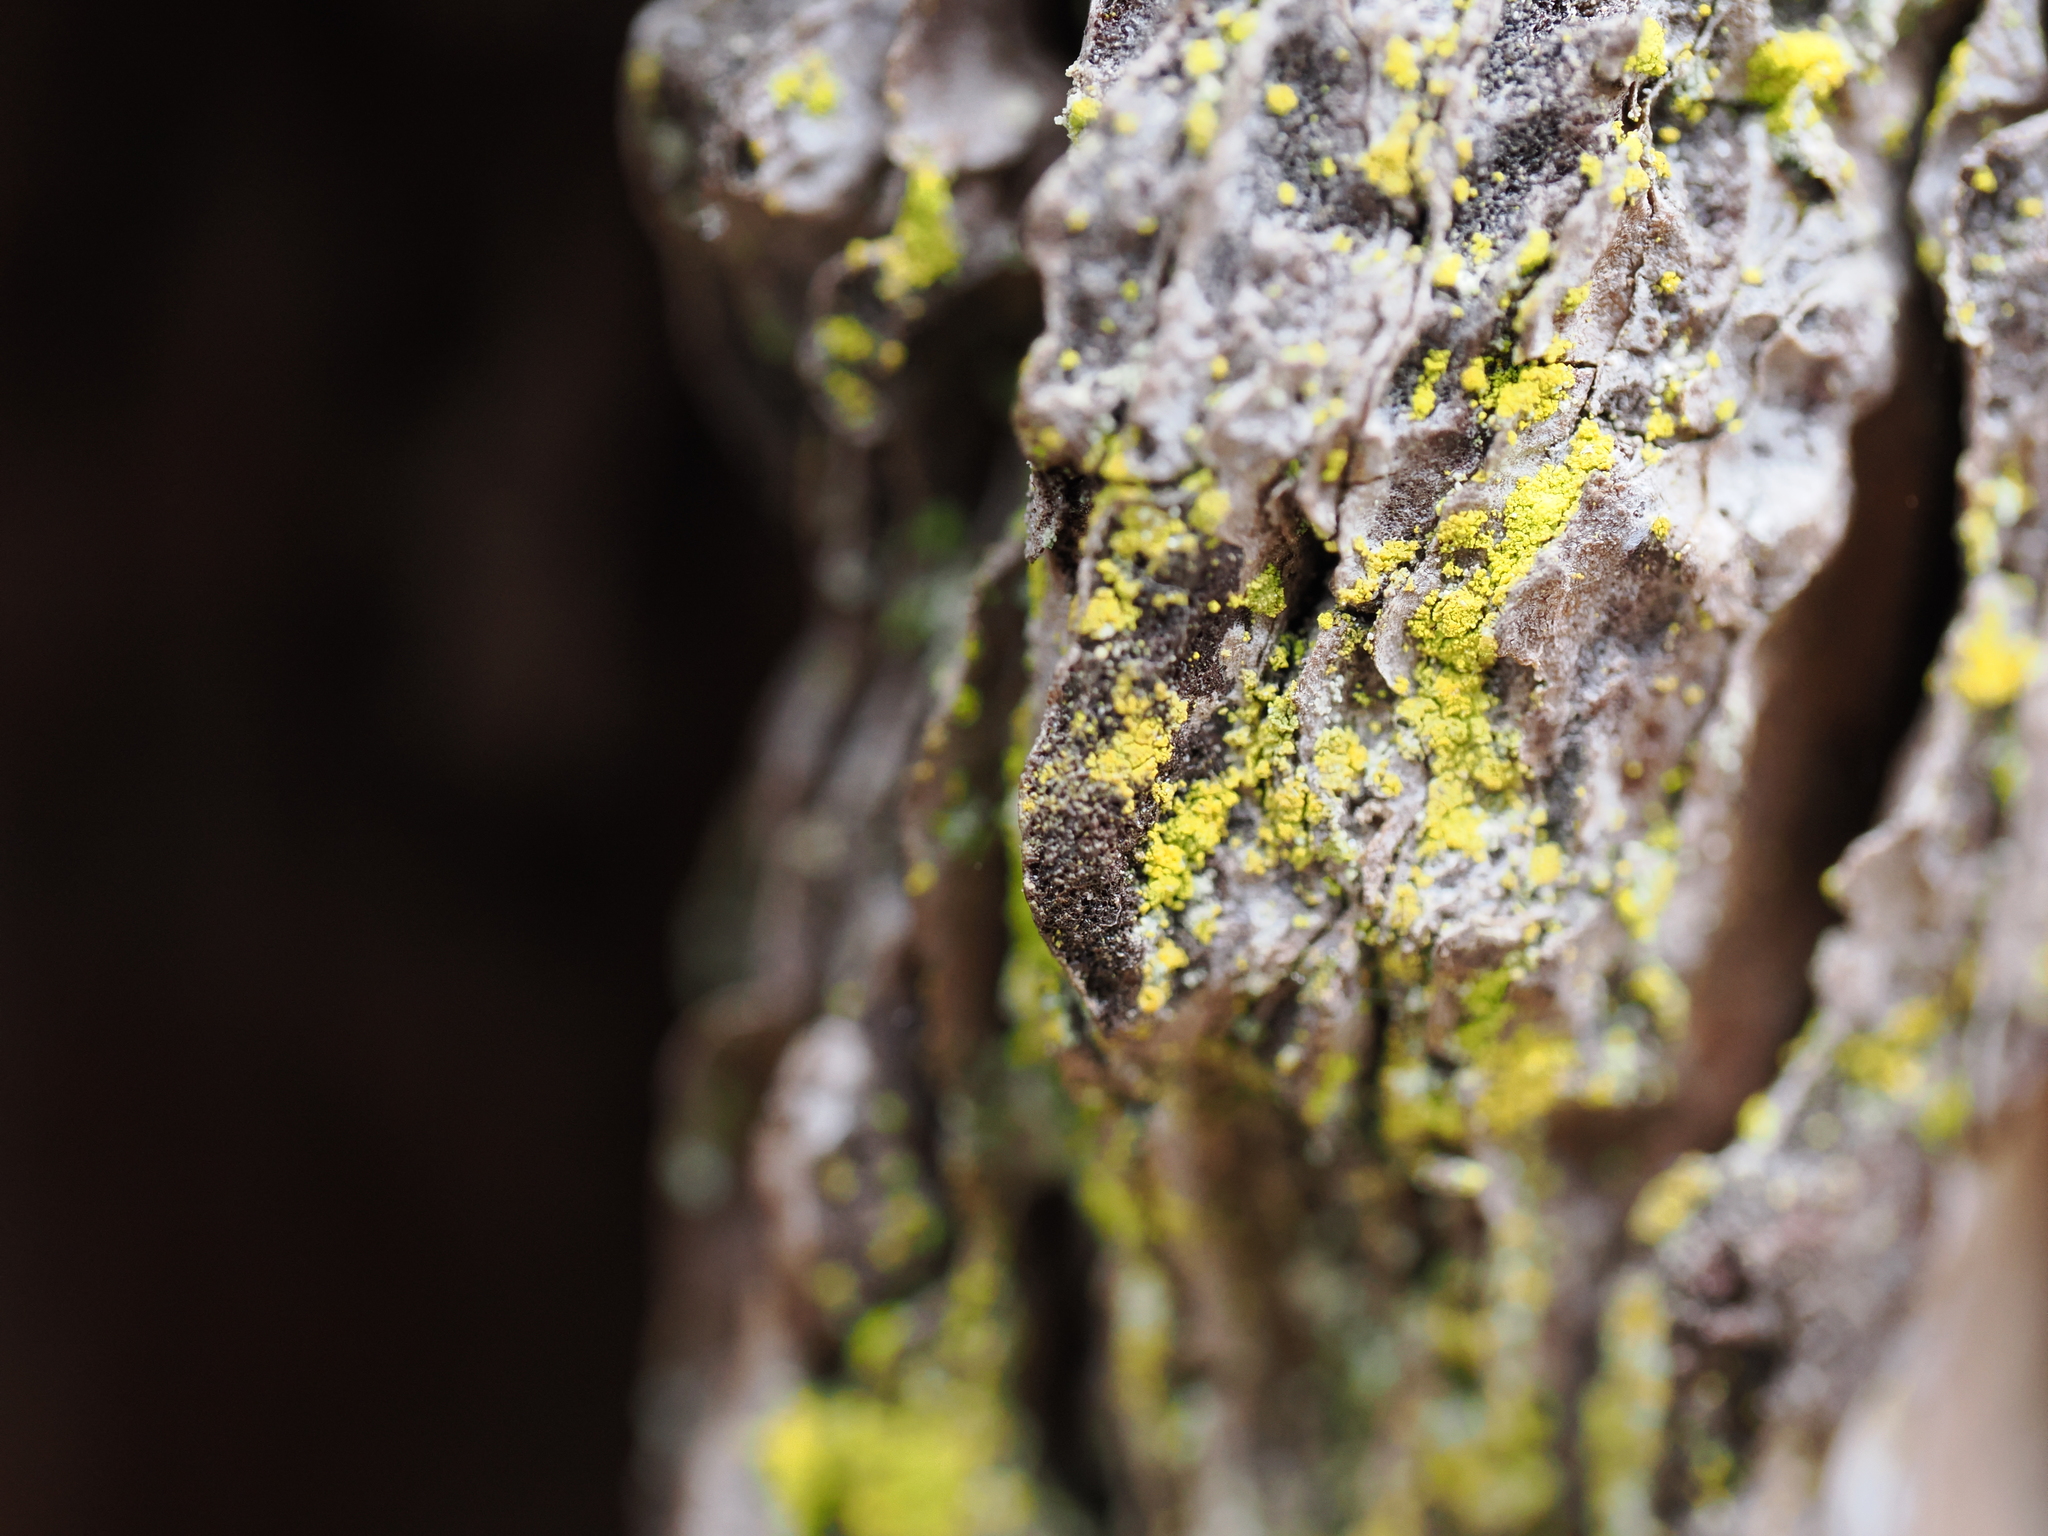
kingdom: Fungi
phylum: Ascomycota
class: Arthoniomycetes
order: Arthoniales
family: Chrysotrichaceae
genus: Chrysothrix
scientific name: Chrysothrix candelaris
